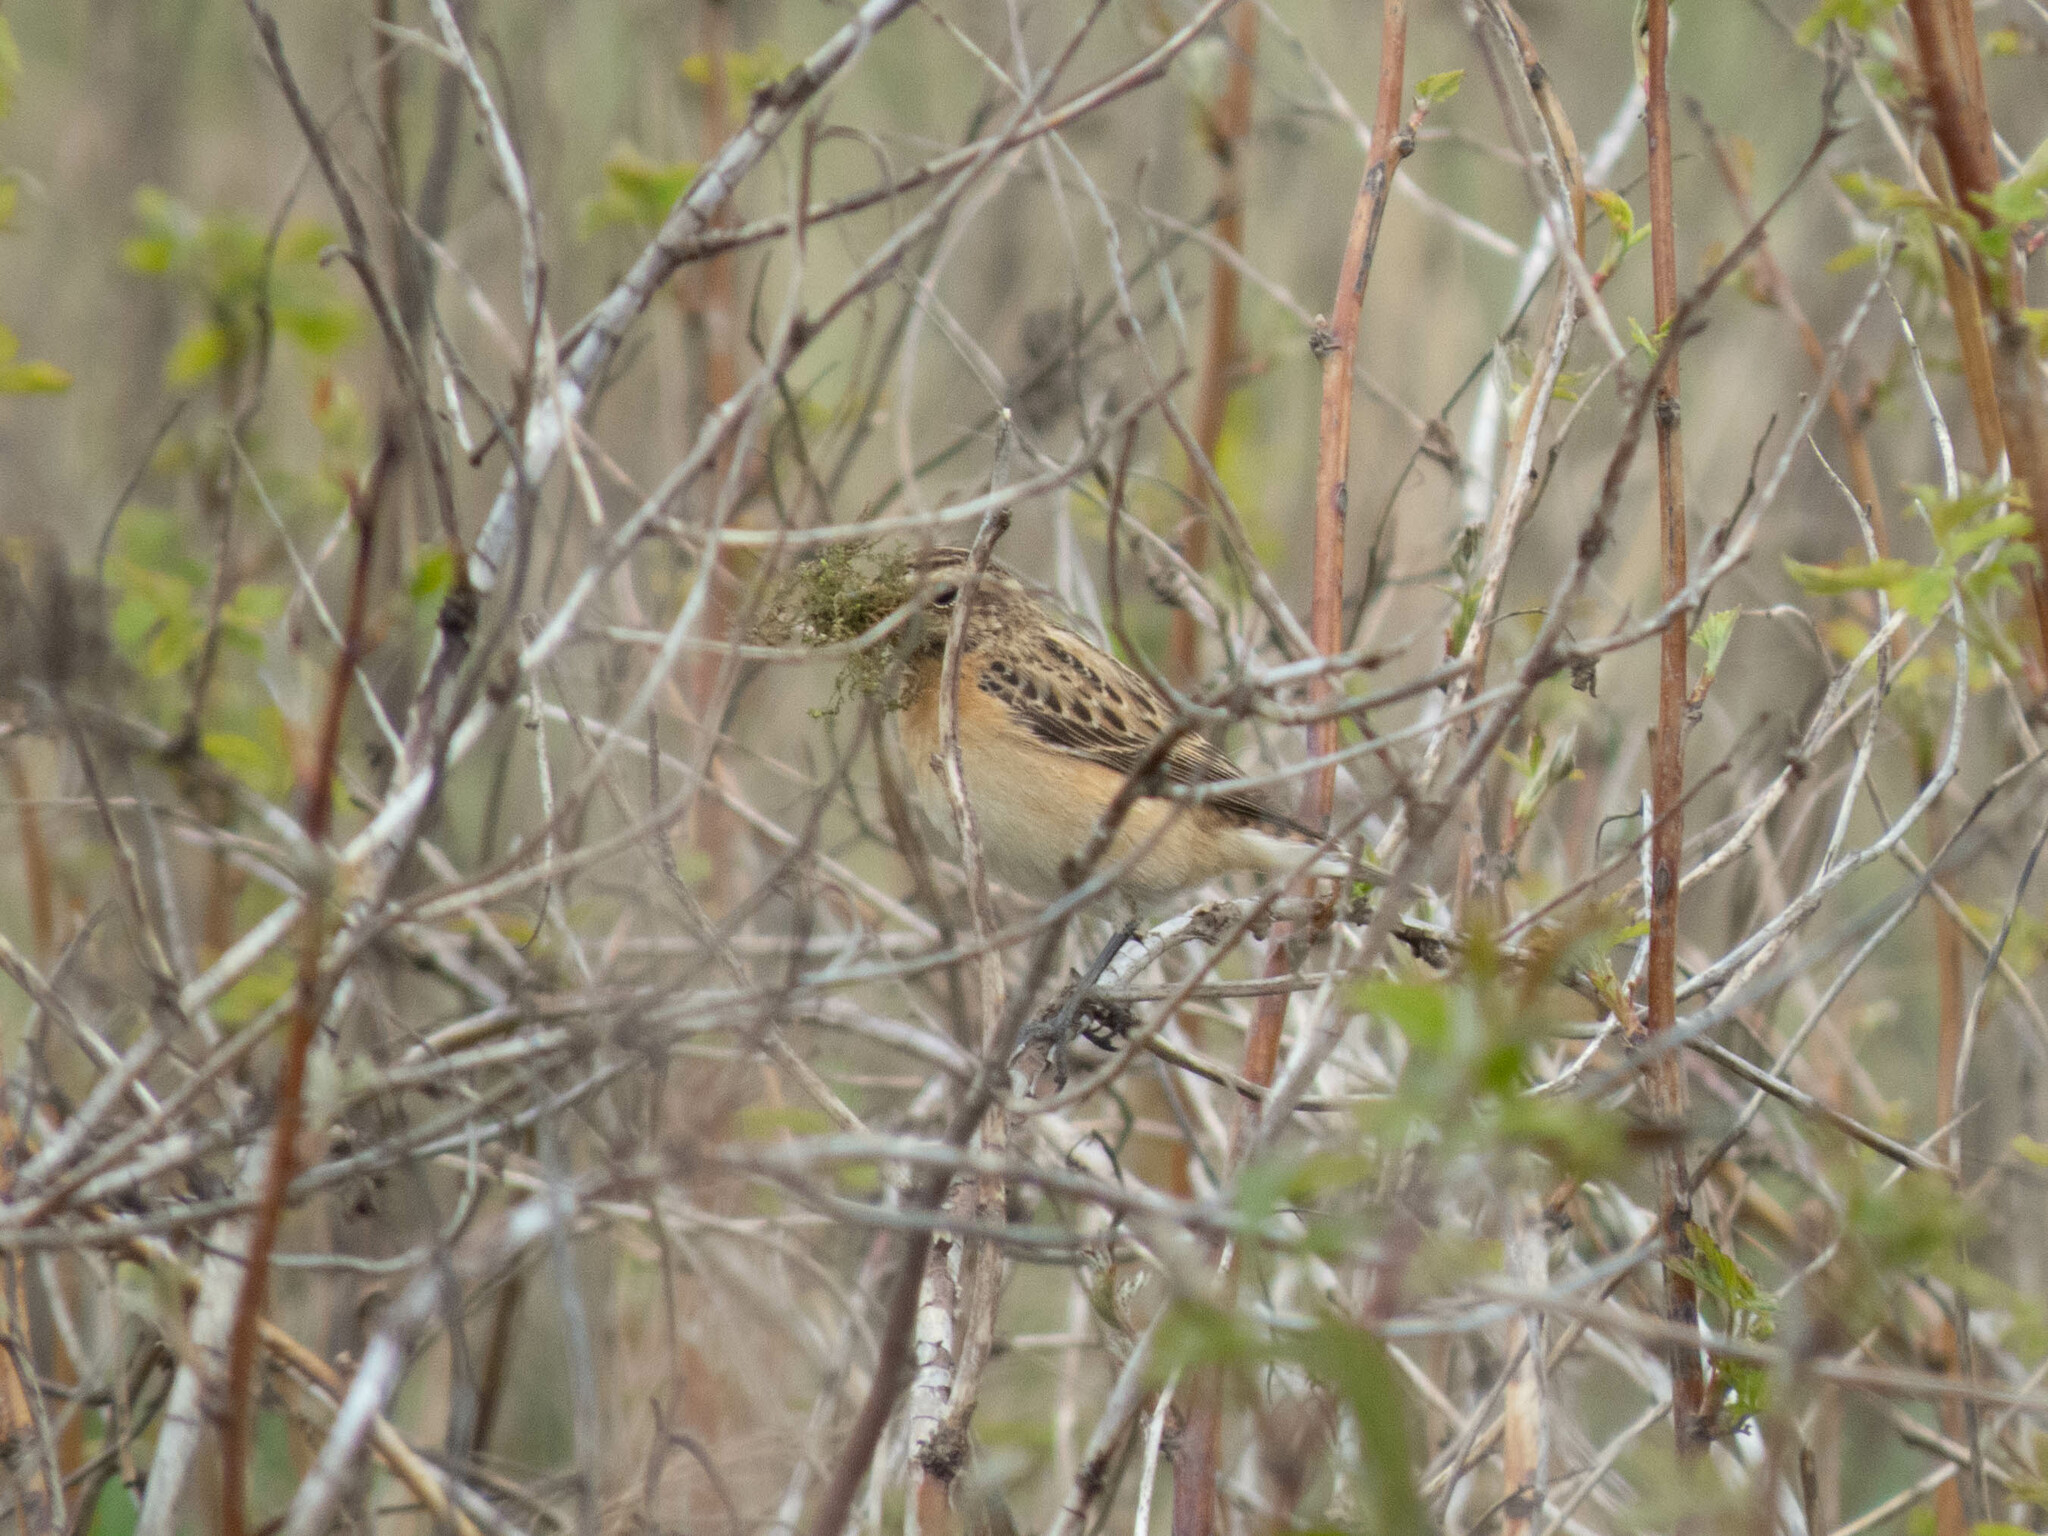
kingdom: Animalia
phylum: Chordata
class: Aves
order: Passeriformes
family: Muscicapidae
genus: Saxicola
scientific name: Saxicola rubetra
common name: Whinchat
